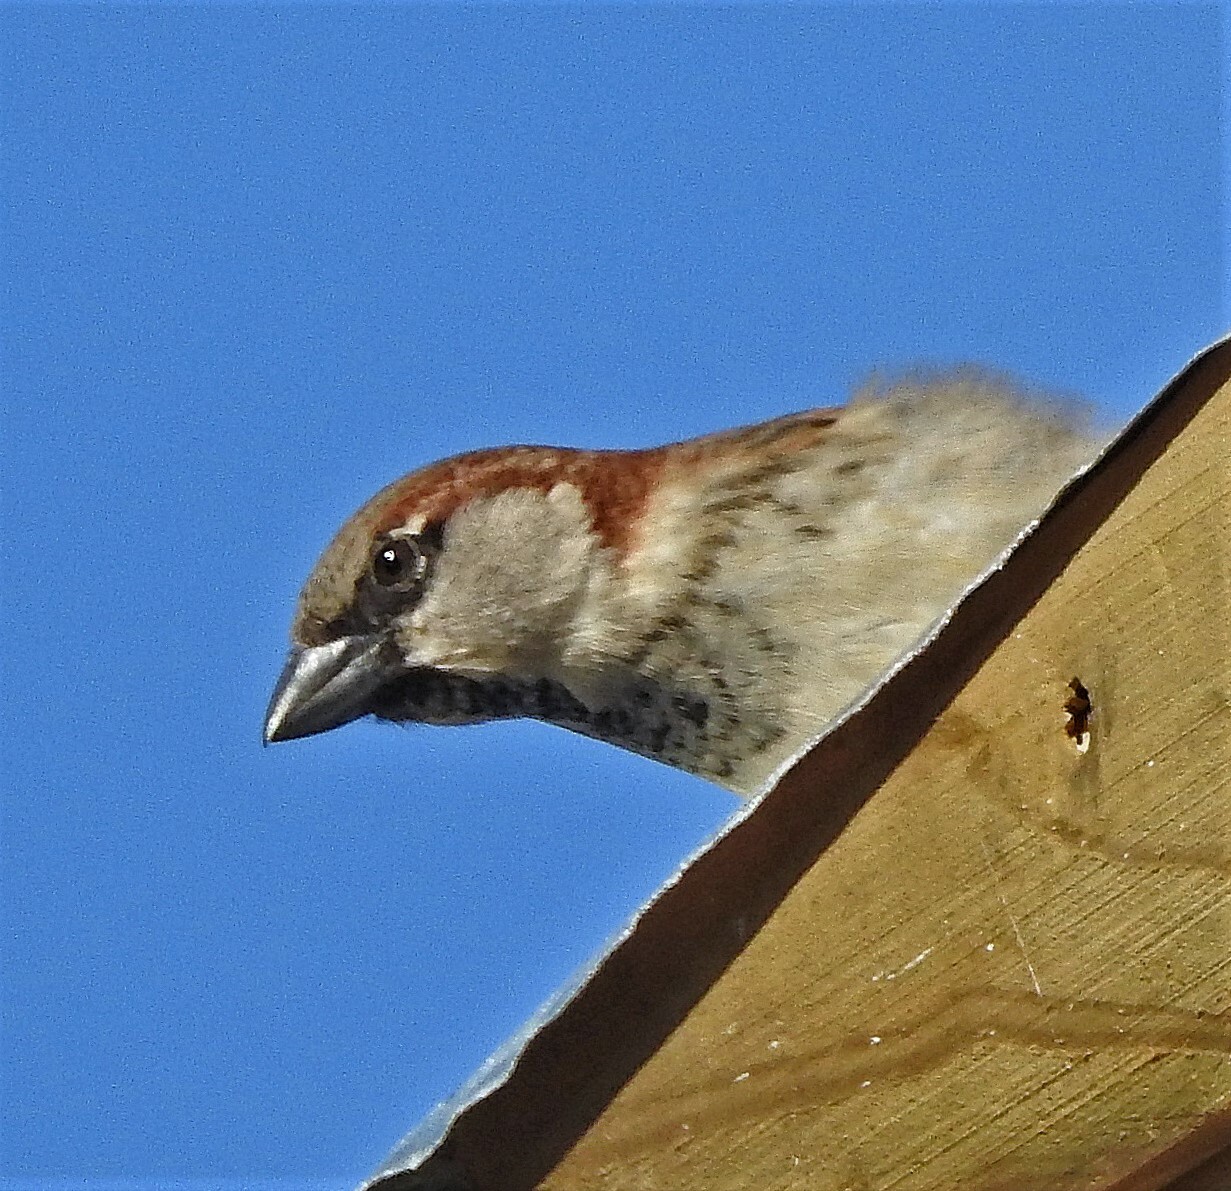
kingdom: Animalia
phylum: Chordata
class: Aves
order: Passeriformes
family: Passeridae
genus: Passer
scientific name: Passer domesticus
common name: House sparrow
